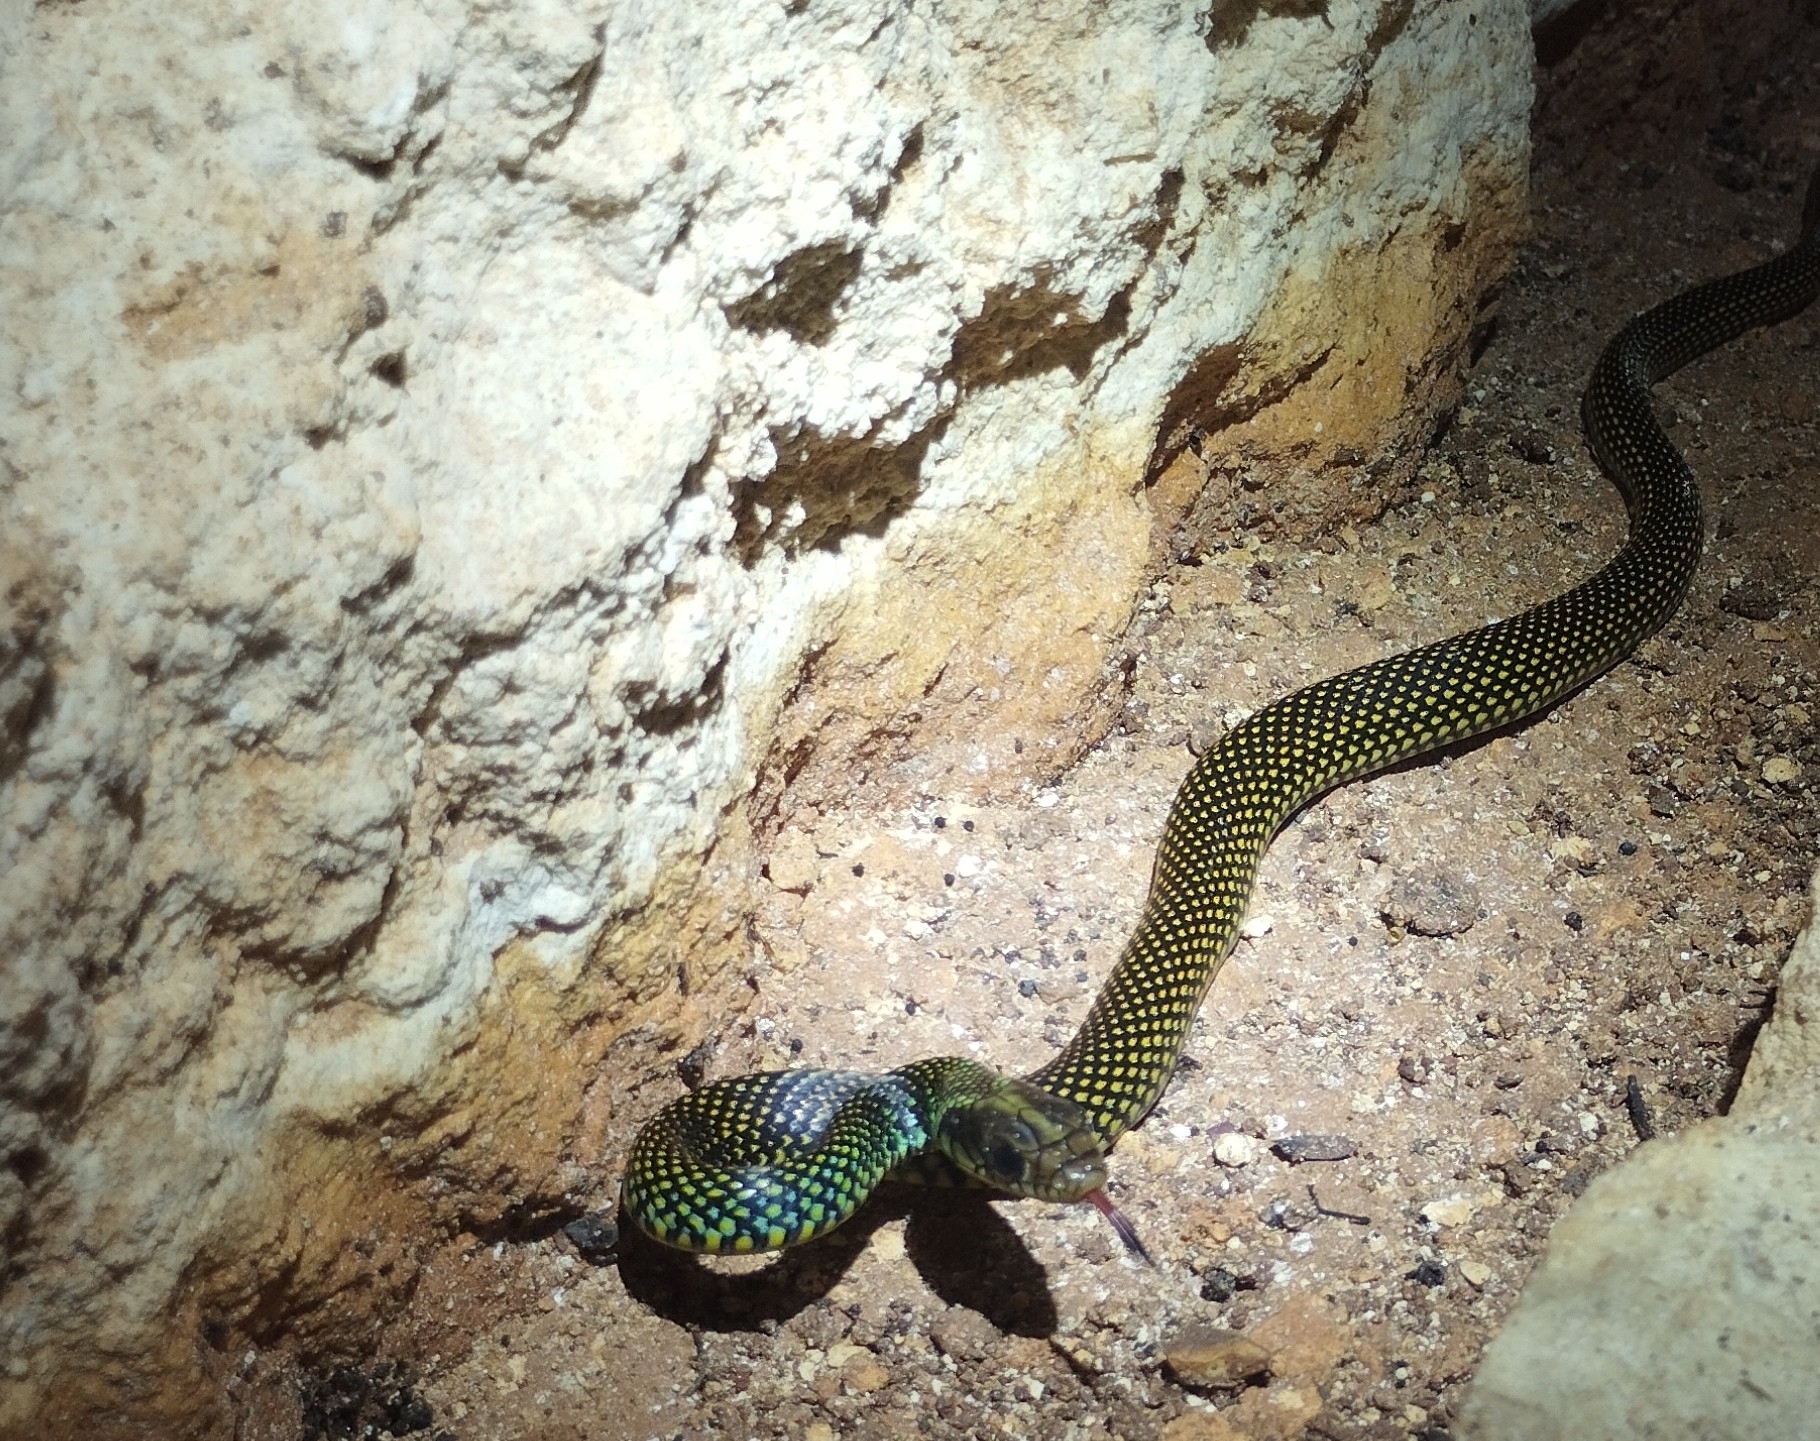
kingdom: Animalia
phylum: Chordata
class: Squamata
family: Colubridae
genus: Drymobius
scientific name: Drymobius margaritiferus
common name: Central american speckled racer
